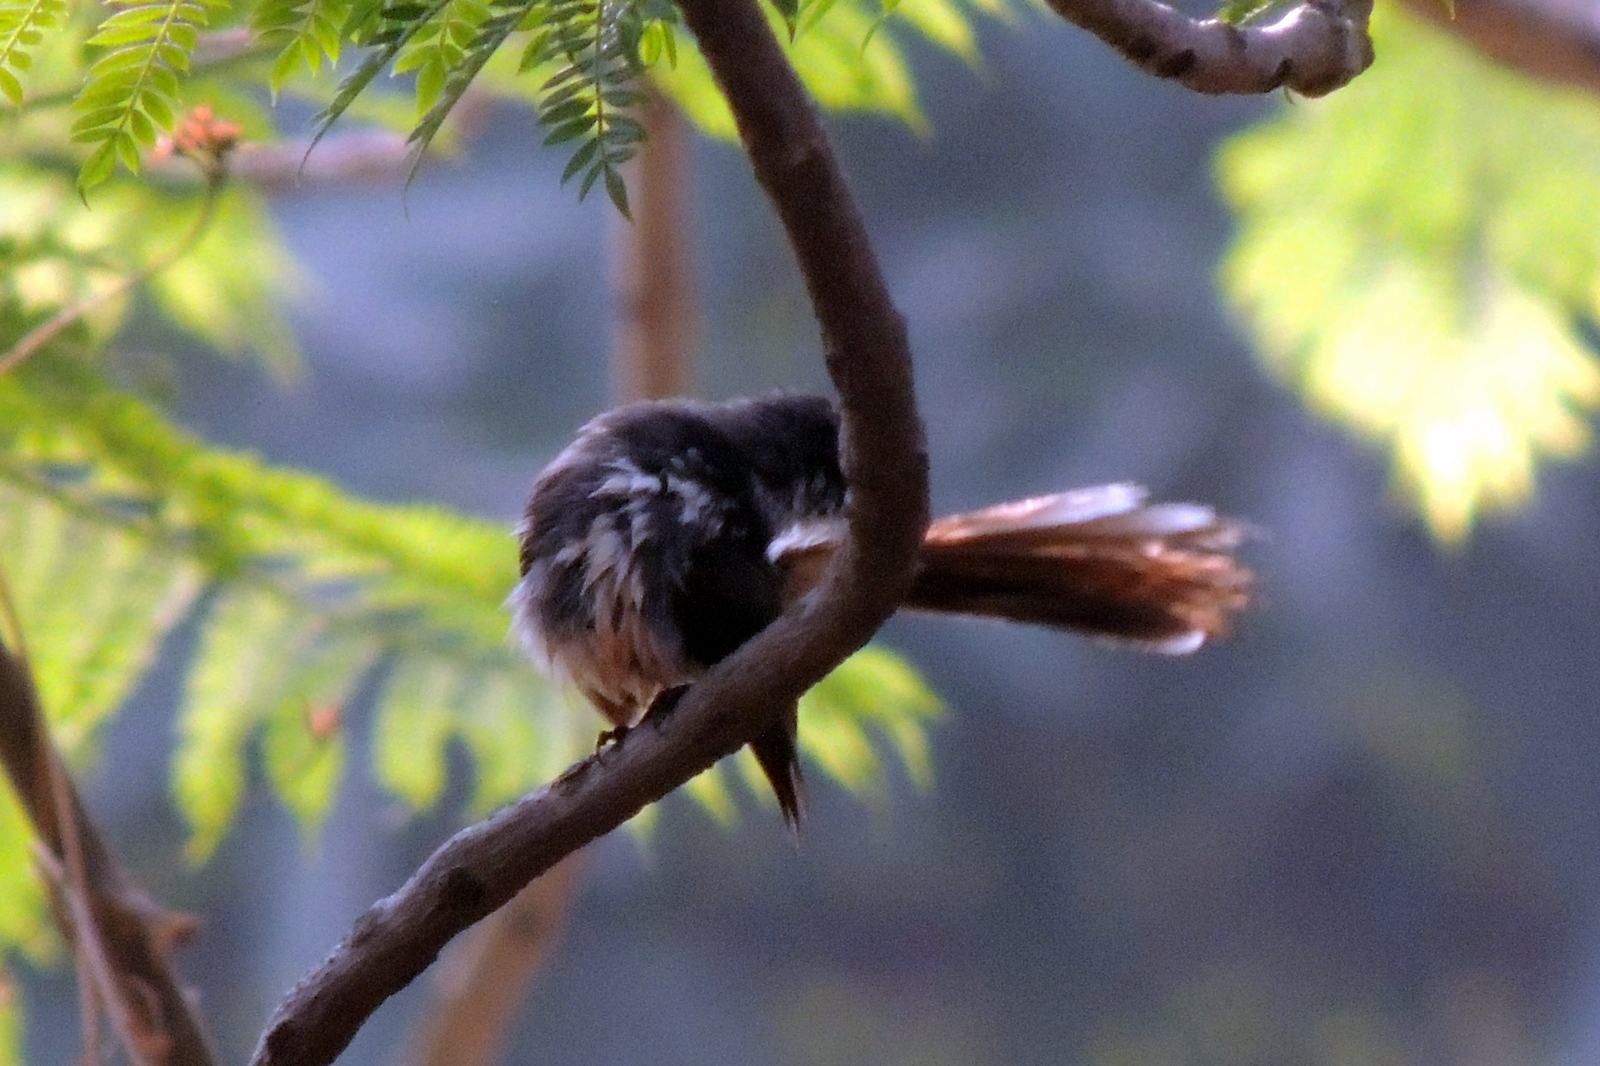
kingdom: Animalia
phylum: Chordata
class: Aves
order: Passeriformes
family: Rhipiduridae
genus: Rhipidura
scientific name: Rhipidura albogularis
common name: White-spotted fantail
